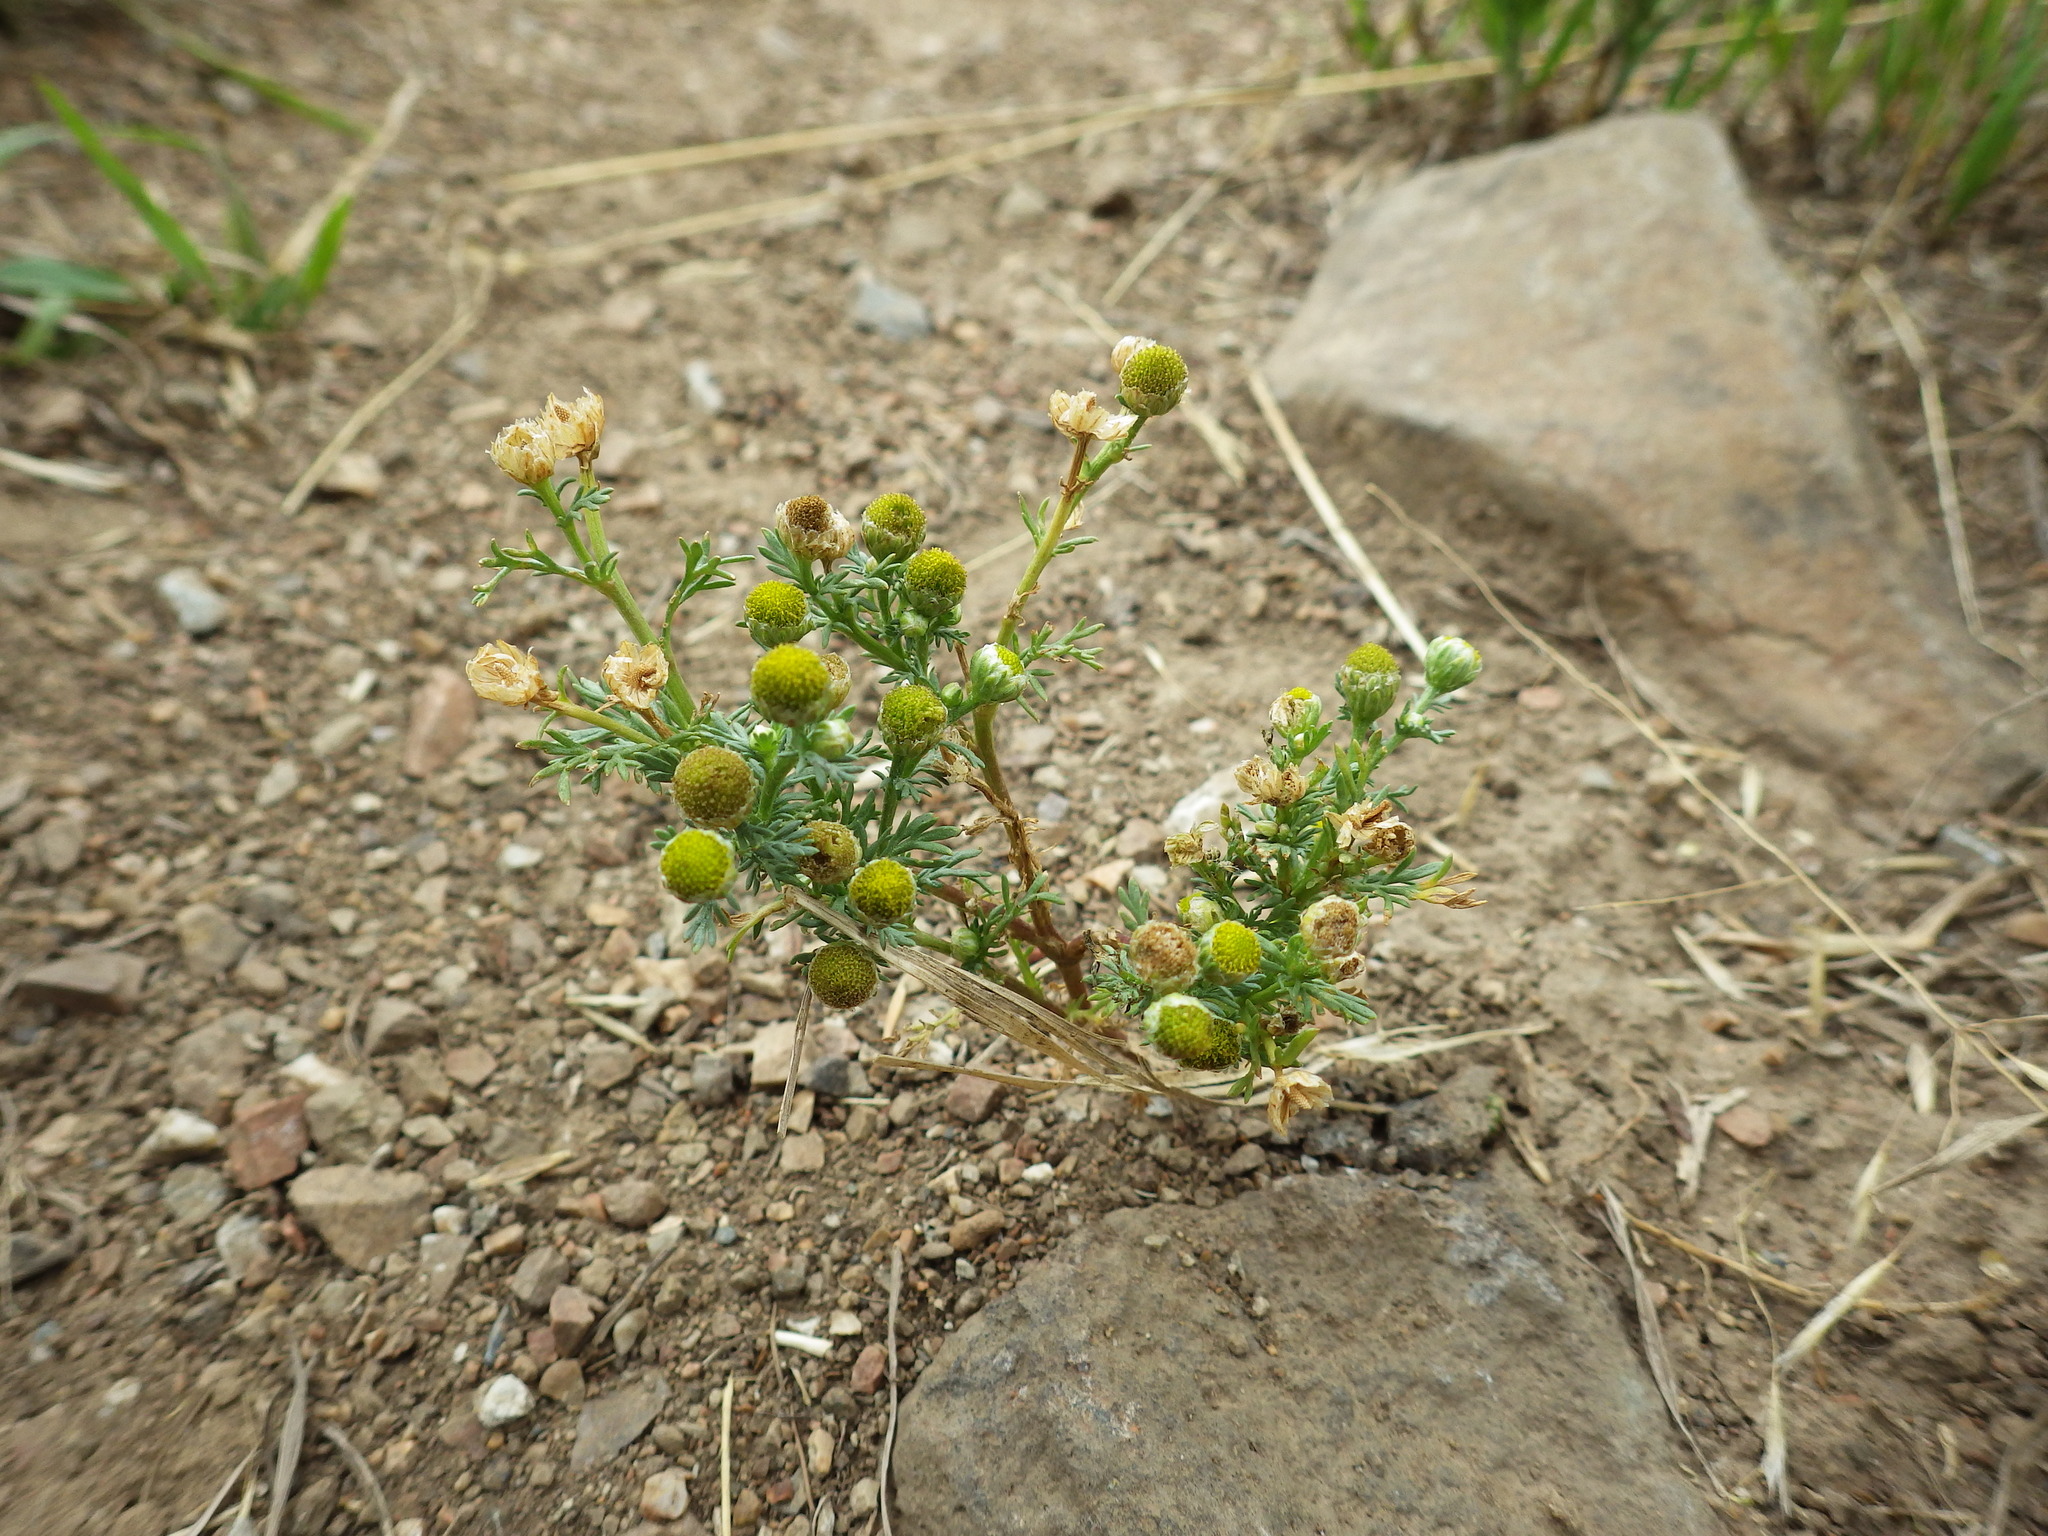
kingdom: Plantae
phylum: Tracheophyta
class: Magnoliopsida
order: Asterales
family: Asteraceae
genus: Matricaria
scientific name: Matricaria discoidea
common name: Disc mayweed
